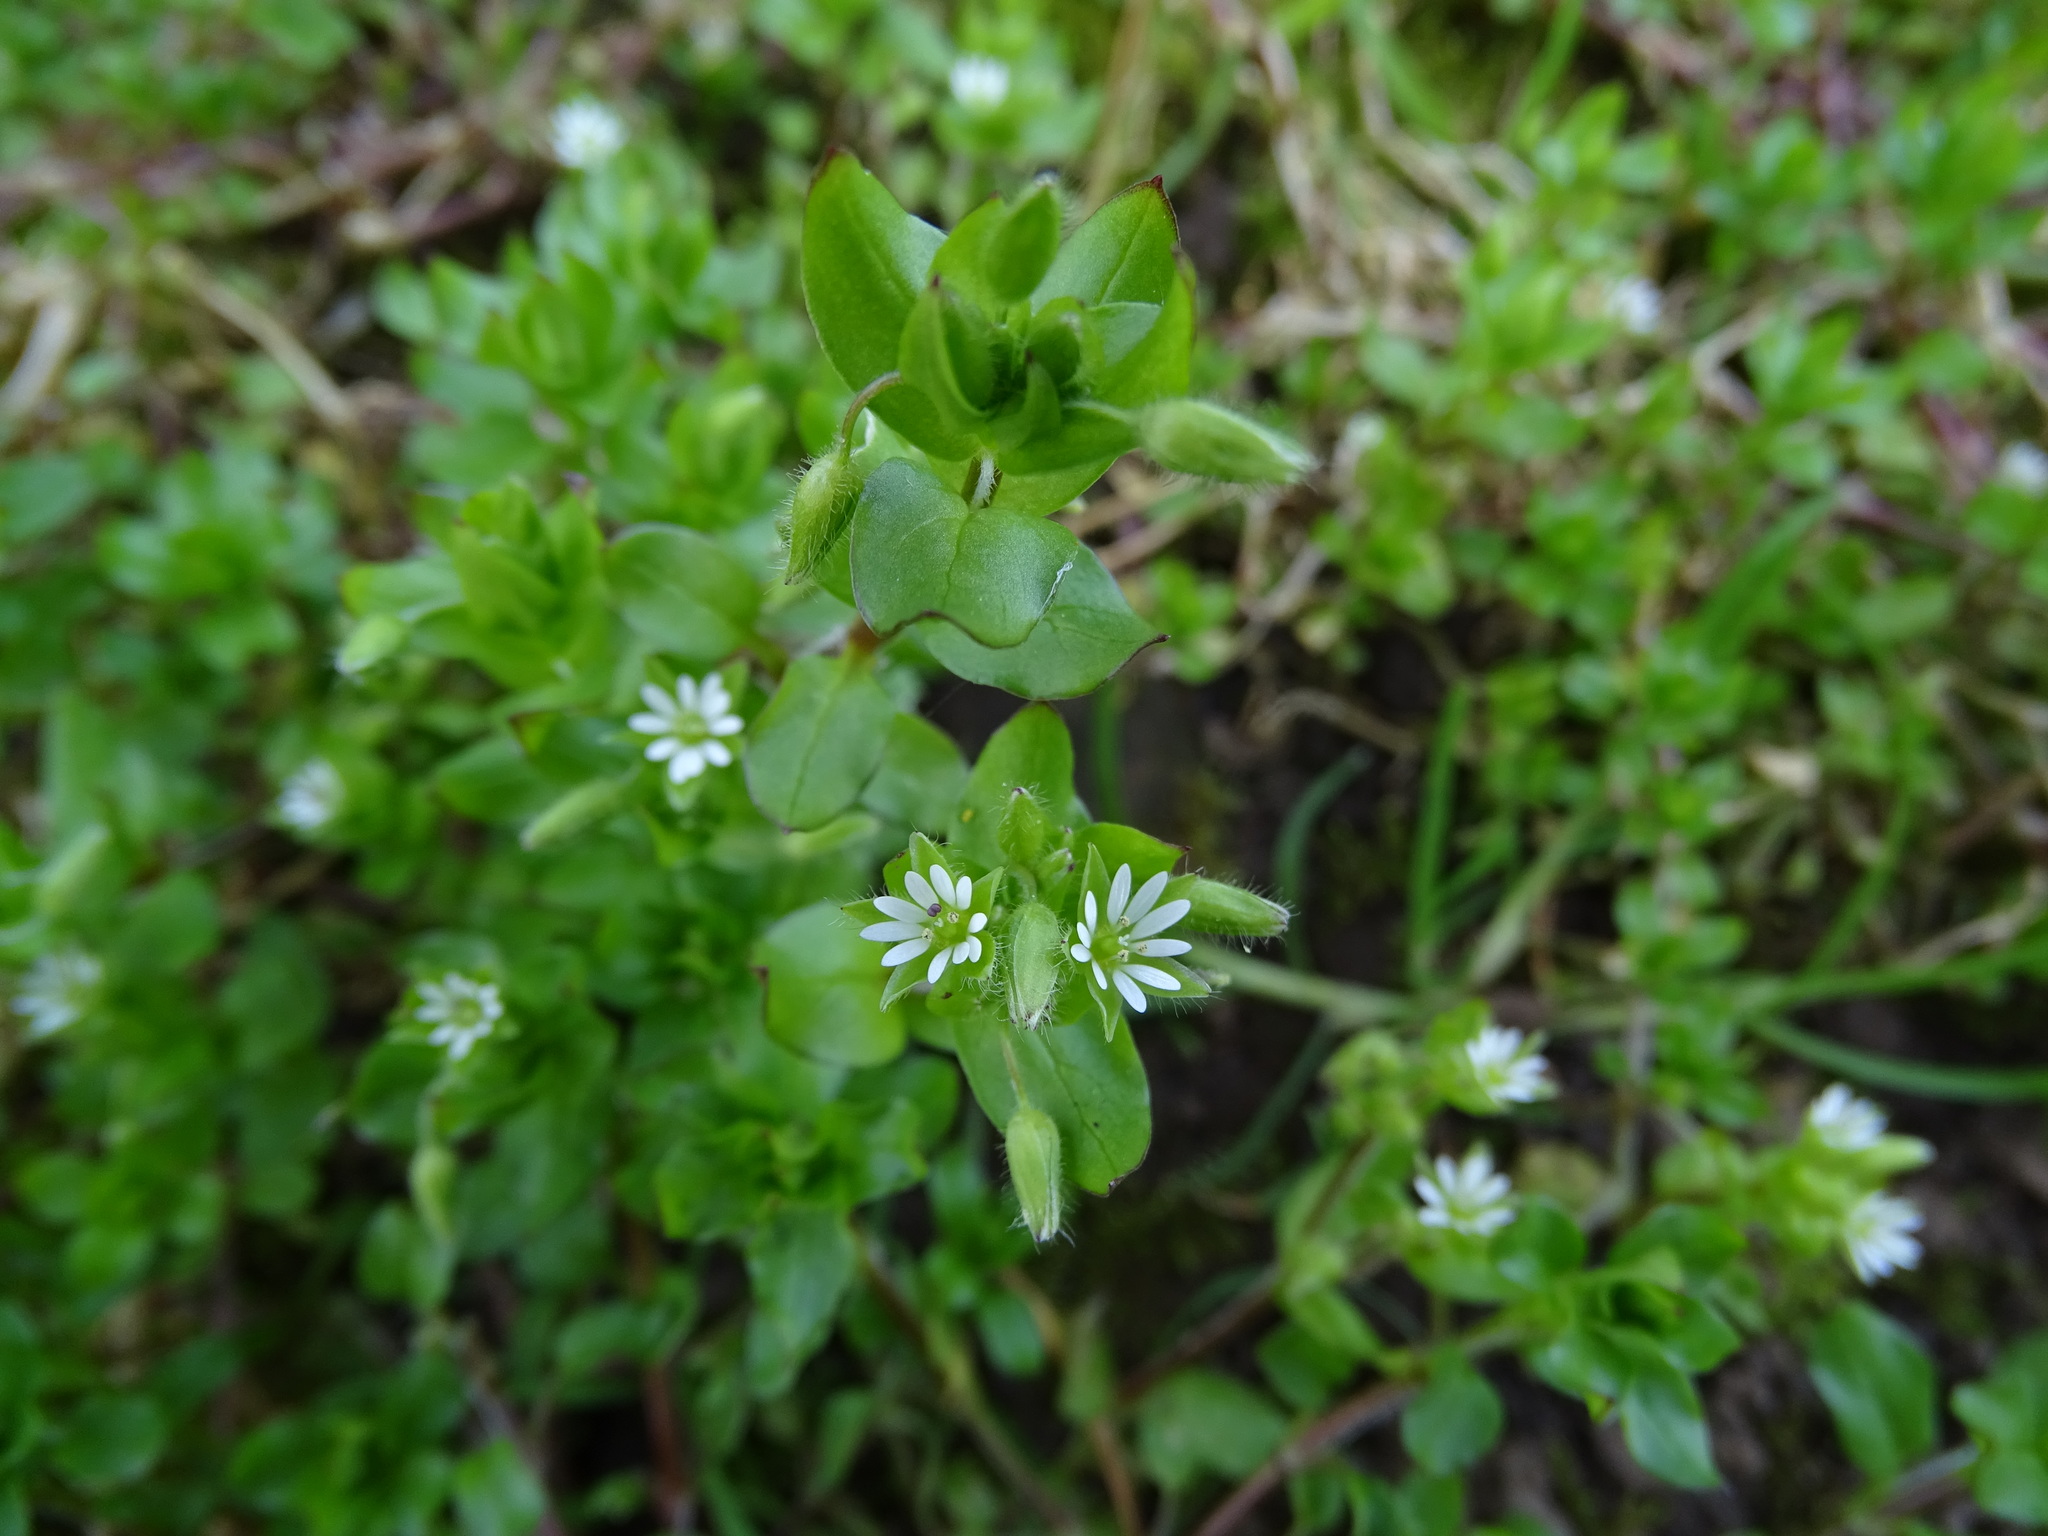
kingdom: Plantae
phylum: Tracheophyta
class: Magnoliopsida
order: Caryophyllales
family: Caryophyllaceae
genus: Stellaria
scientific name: Stellaria media
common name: Common chickweed
